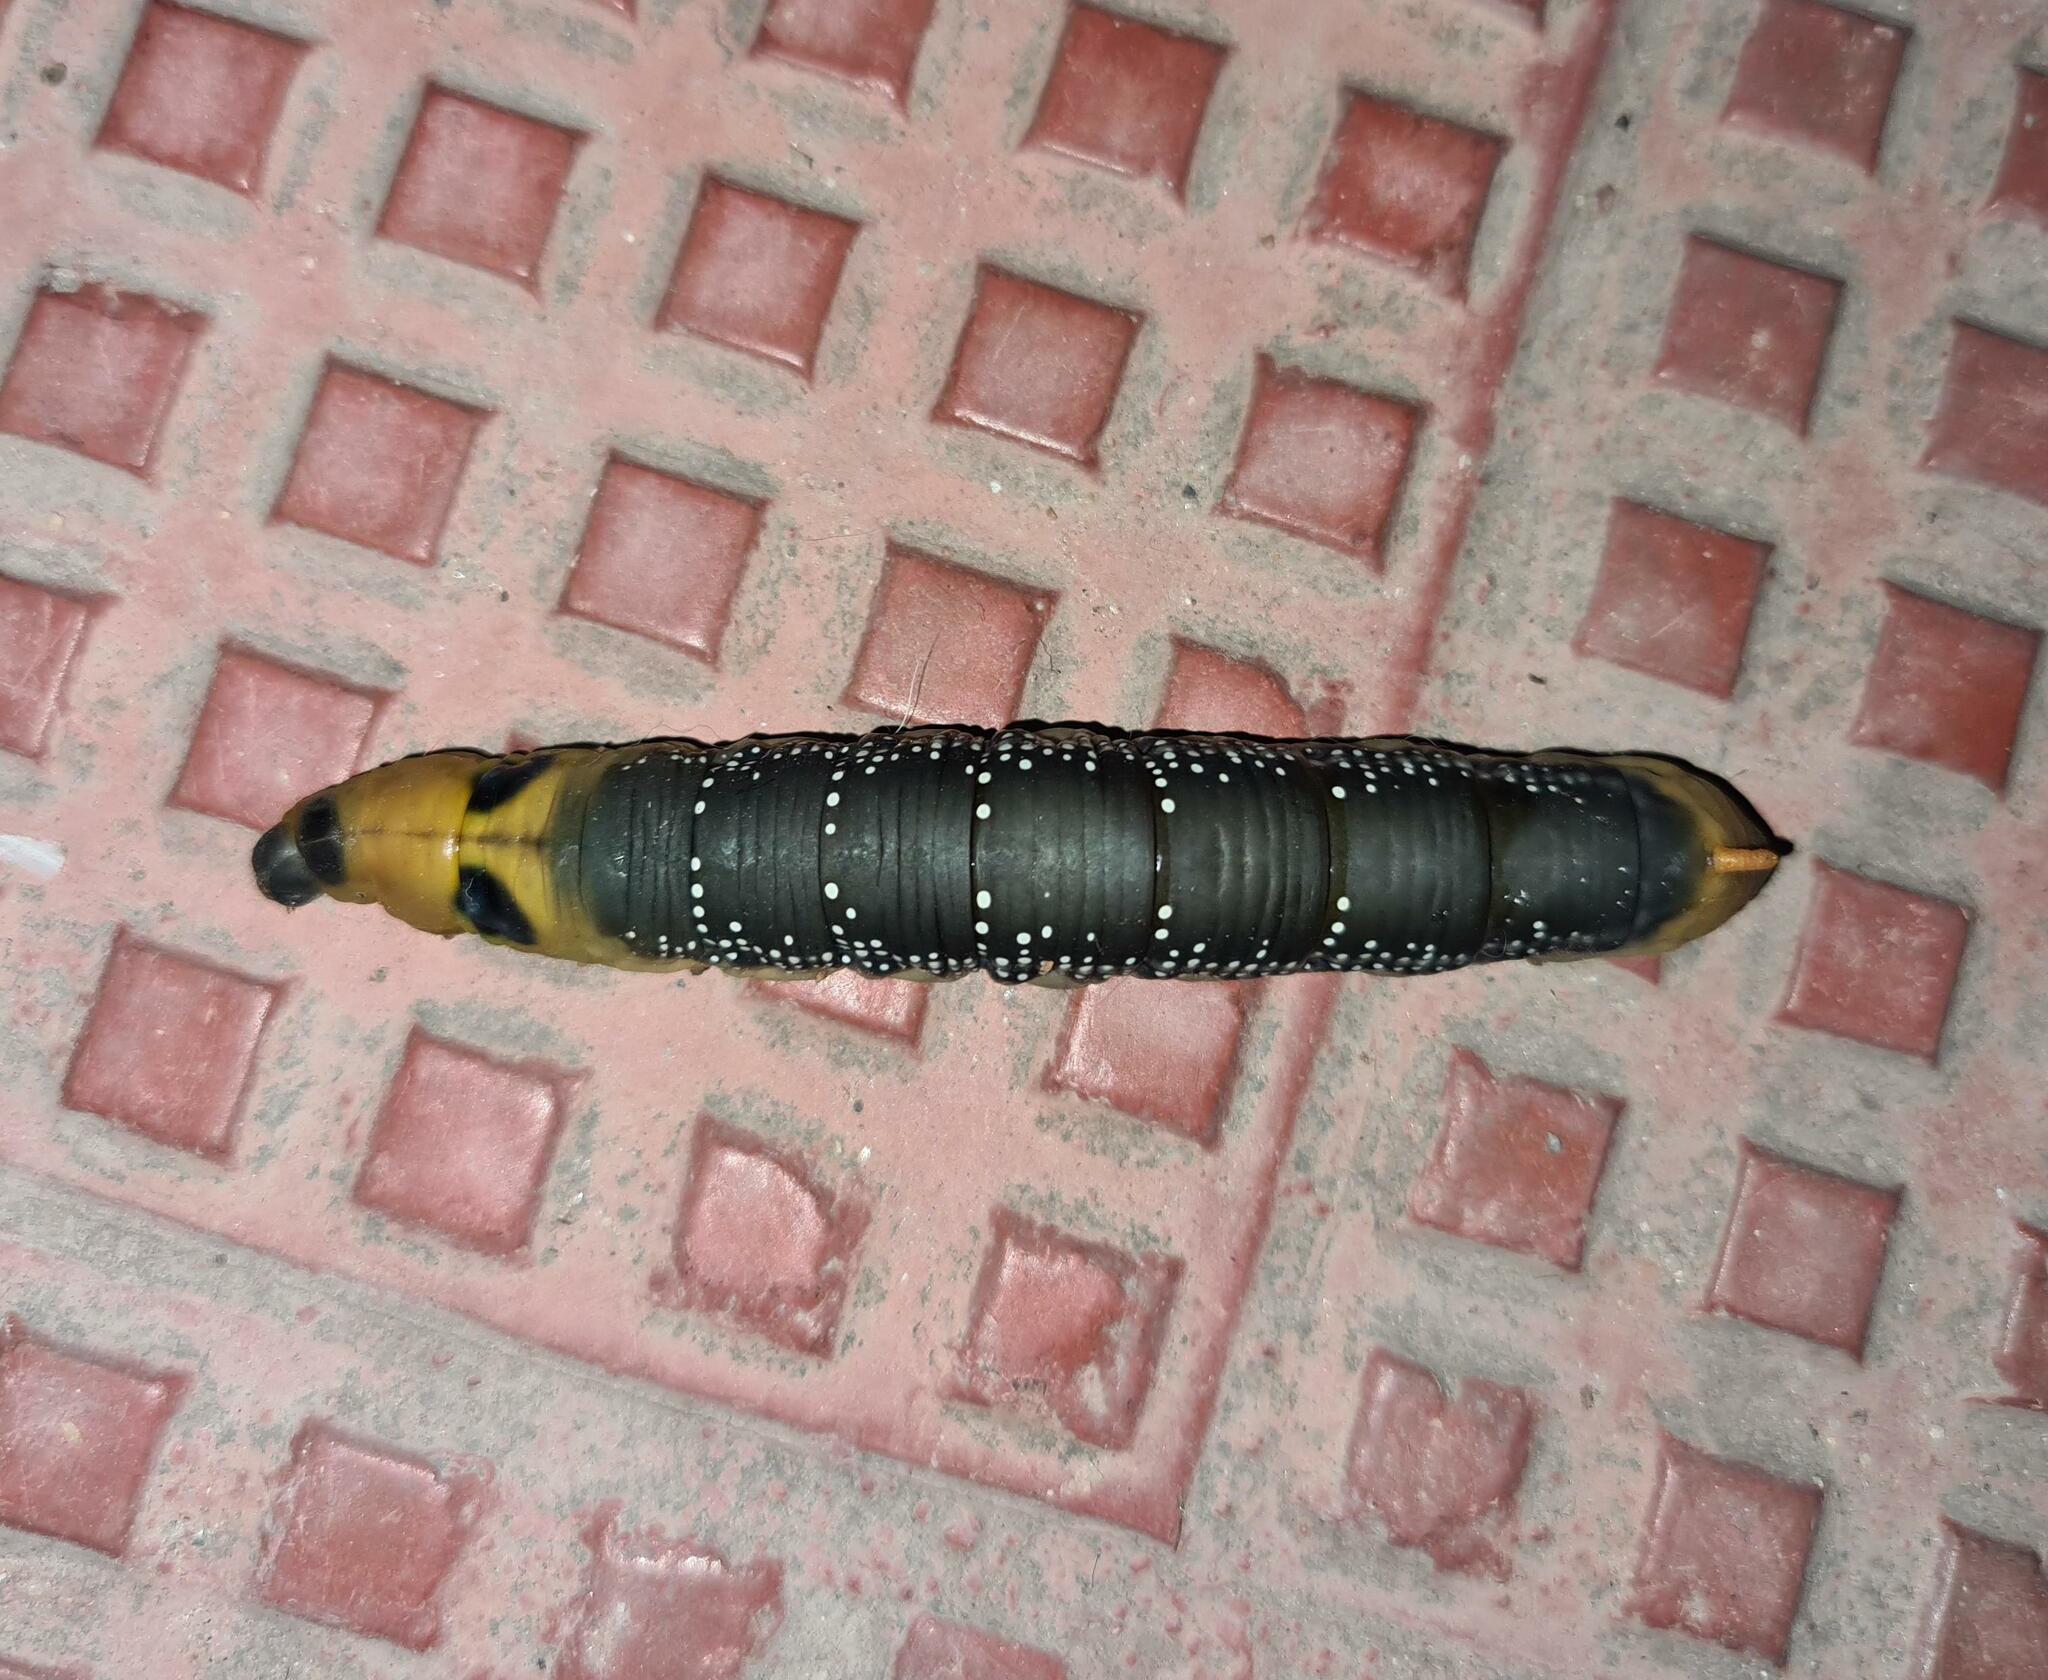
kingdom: Animalia
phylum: Arthropoda
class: Insecta
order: Lepidoptera
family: Sphingidae
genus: Daphnis
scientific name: Daphnis nerii
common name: Oleander hawk-moth
